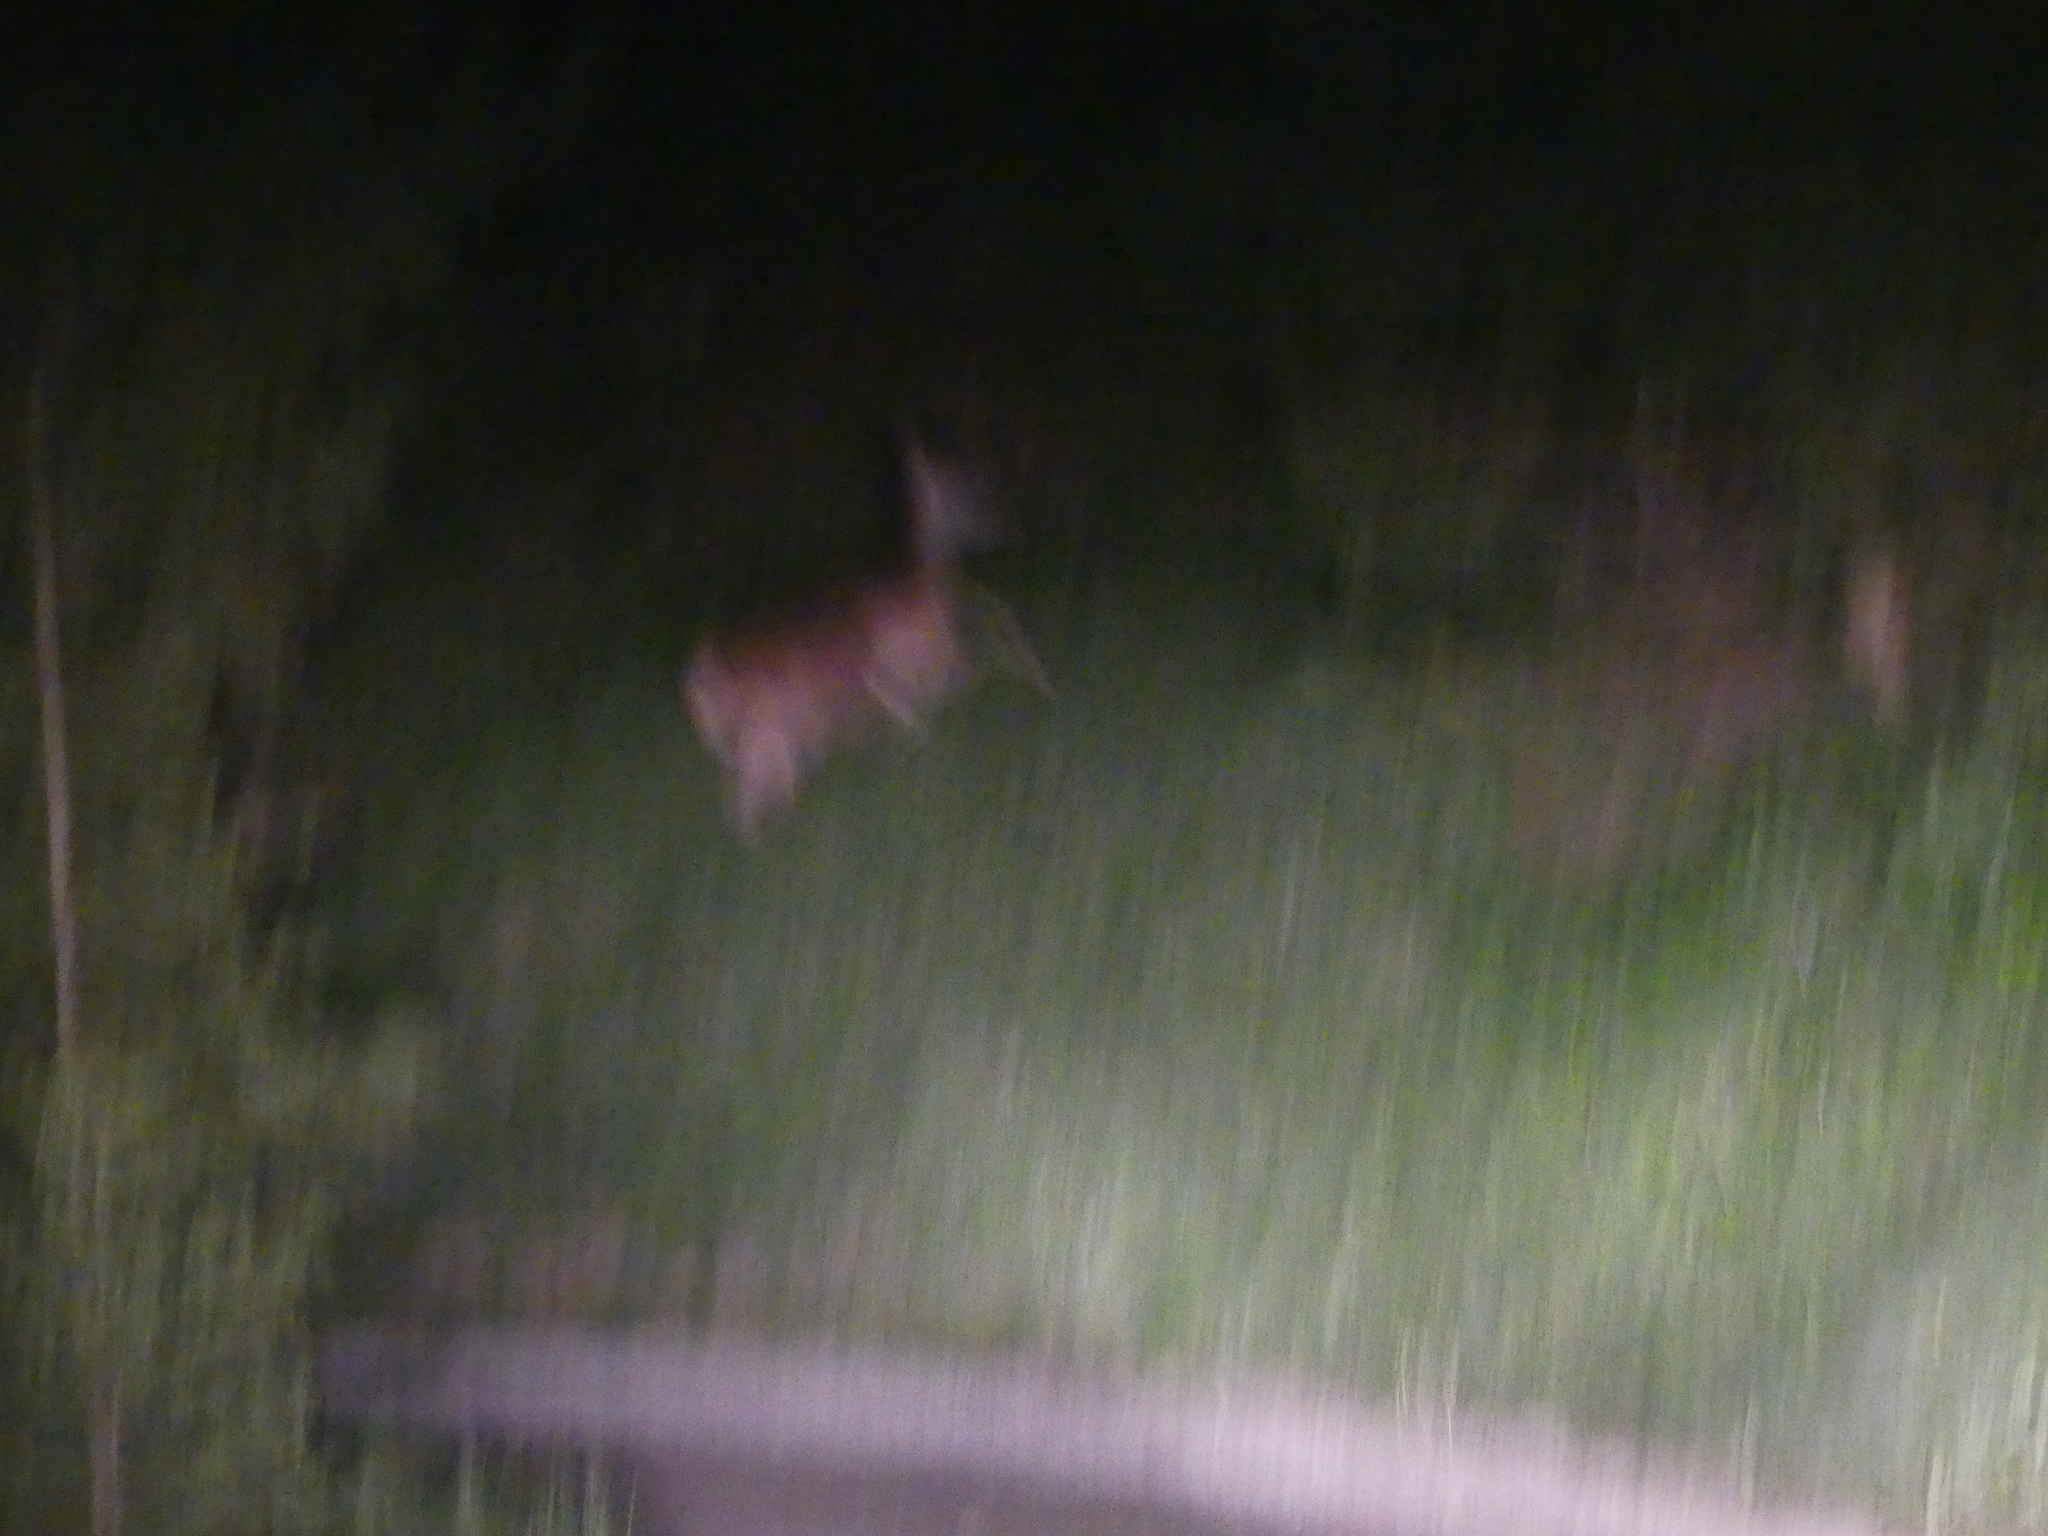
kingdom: Animalia
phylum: Chordata
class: Mammalia
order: Artiodactyla
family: Cervidae
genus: Cervus
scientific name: Cervus elaphus
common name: Red deer
